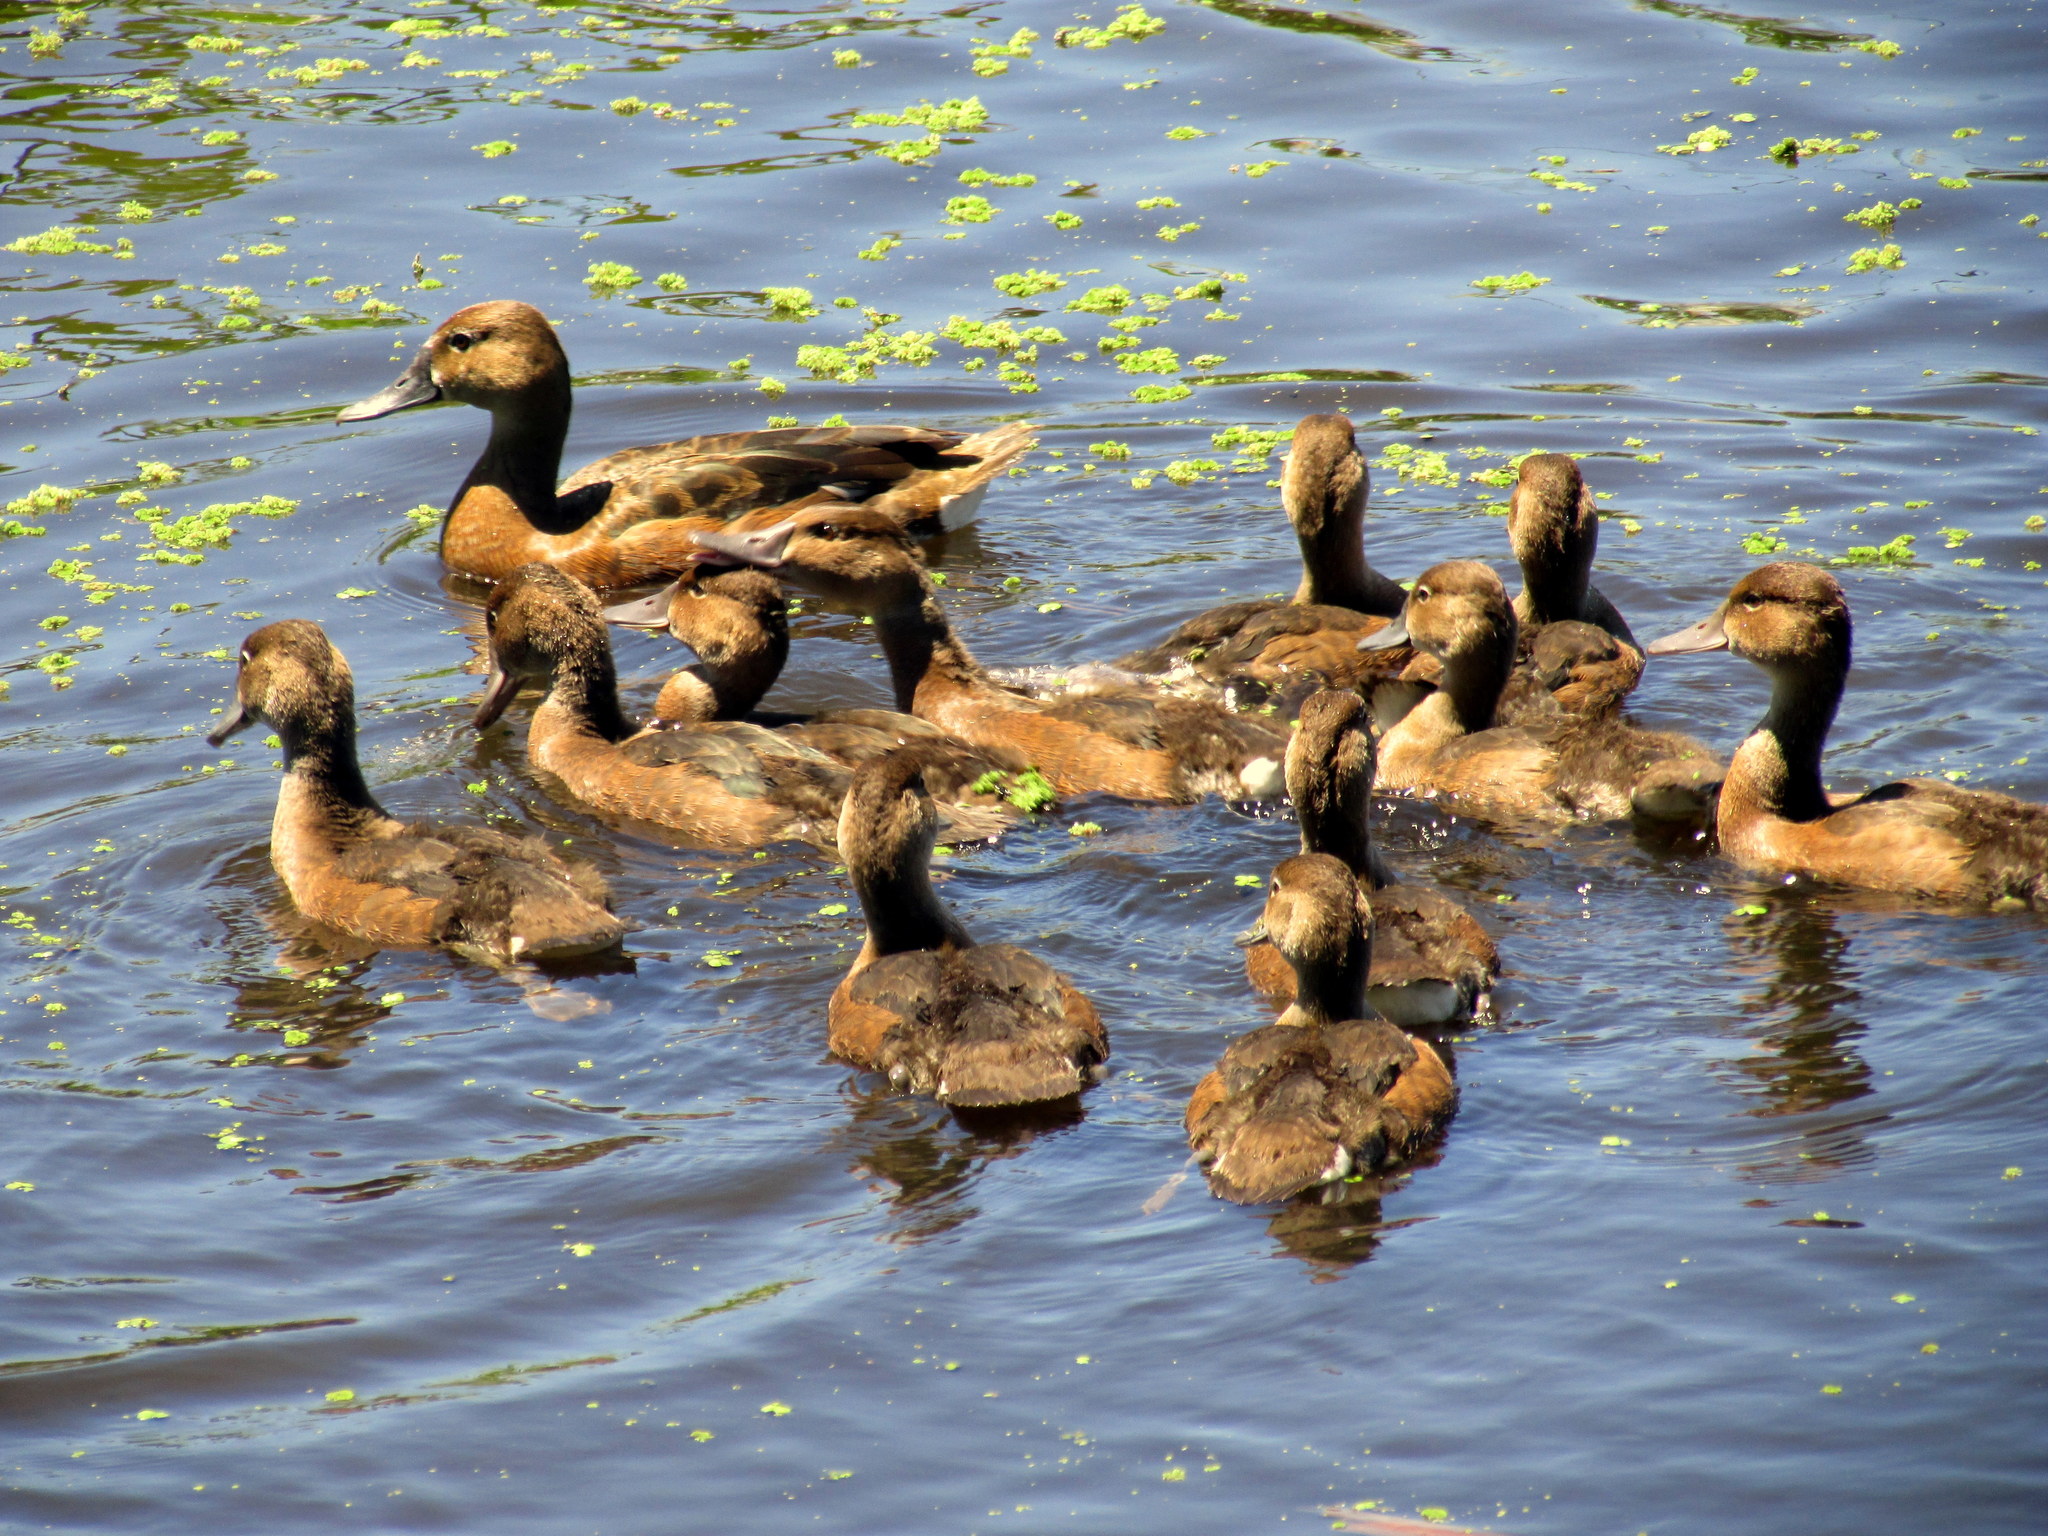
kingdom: Animalia
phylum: Chordata
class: Aves
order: Anseriformes
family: Anatidae
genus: Netta
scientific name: Netta peposaca
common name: Rosy-billed pochard
